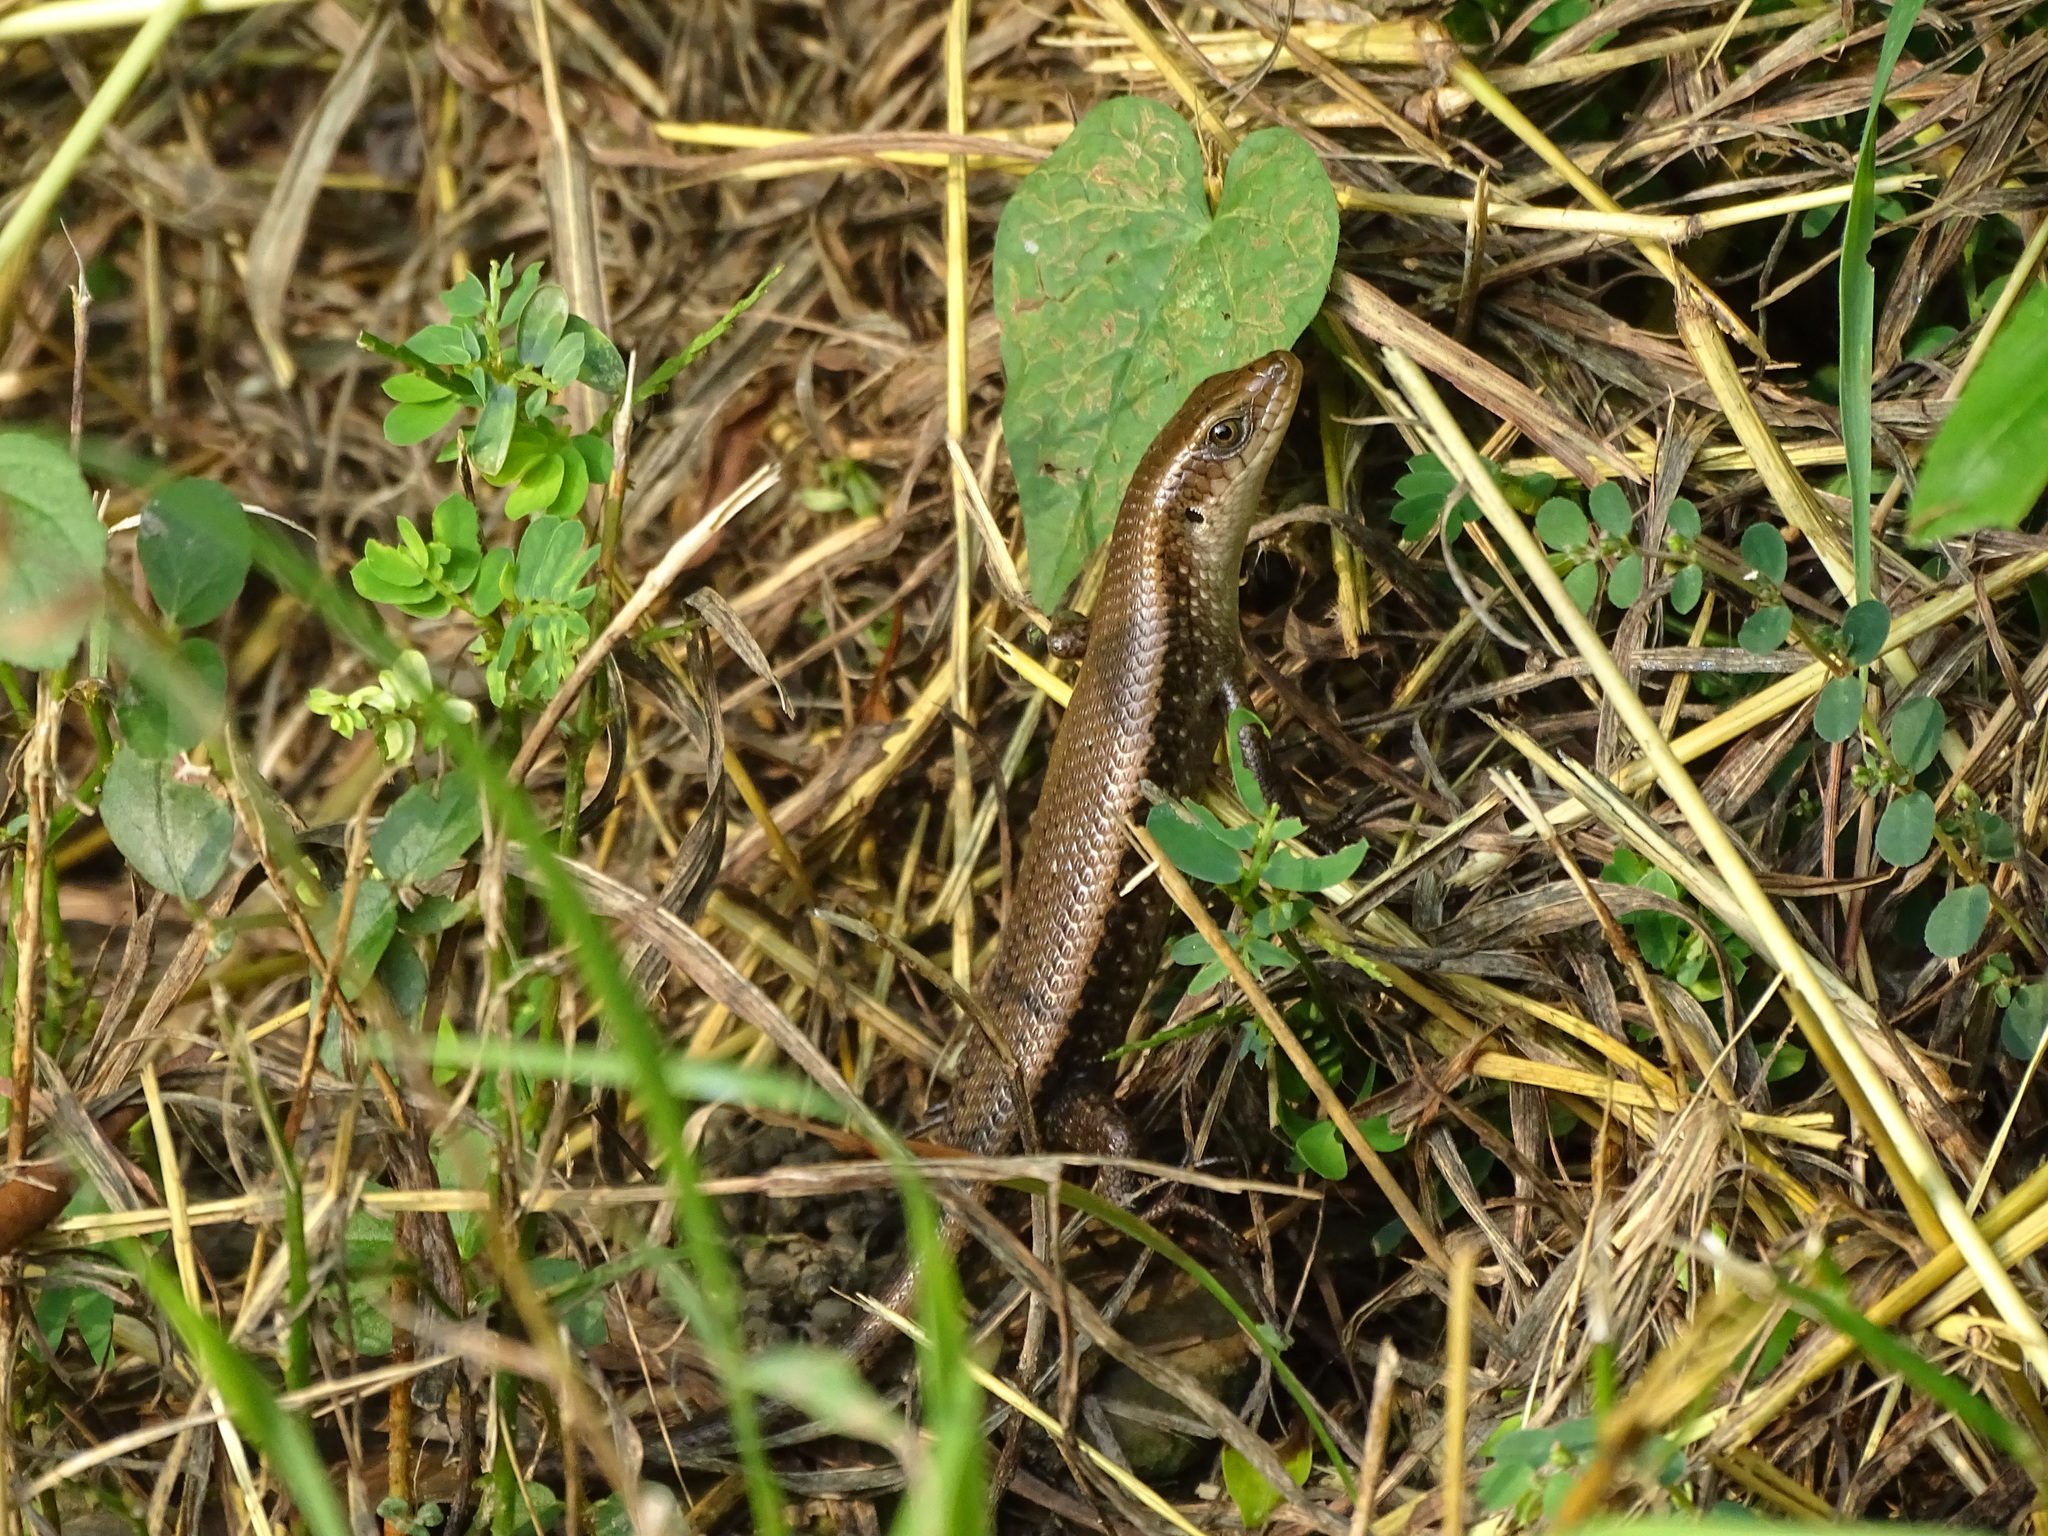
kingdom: Animalia
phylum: Chordata
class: Squamata
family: Scincidae
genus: Eutropis
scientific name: Eutropis multifasciata
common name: Common mabuya
